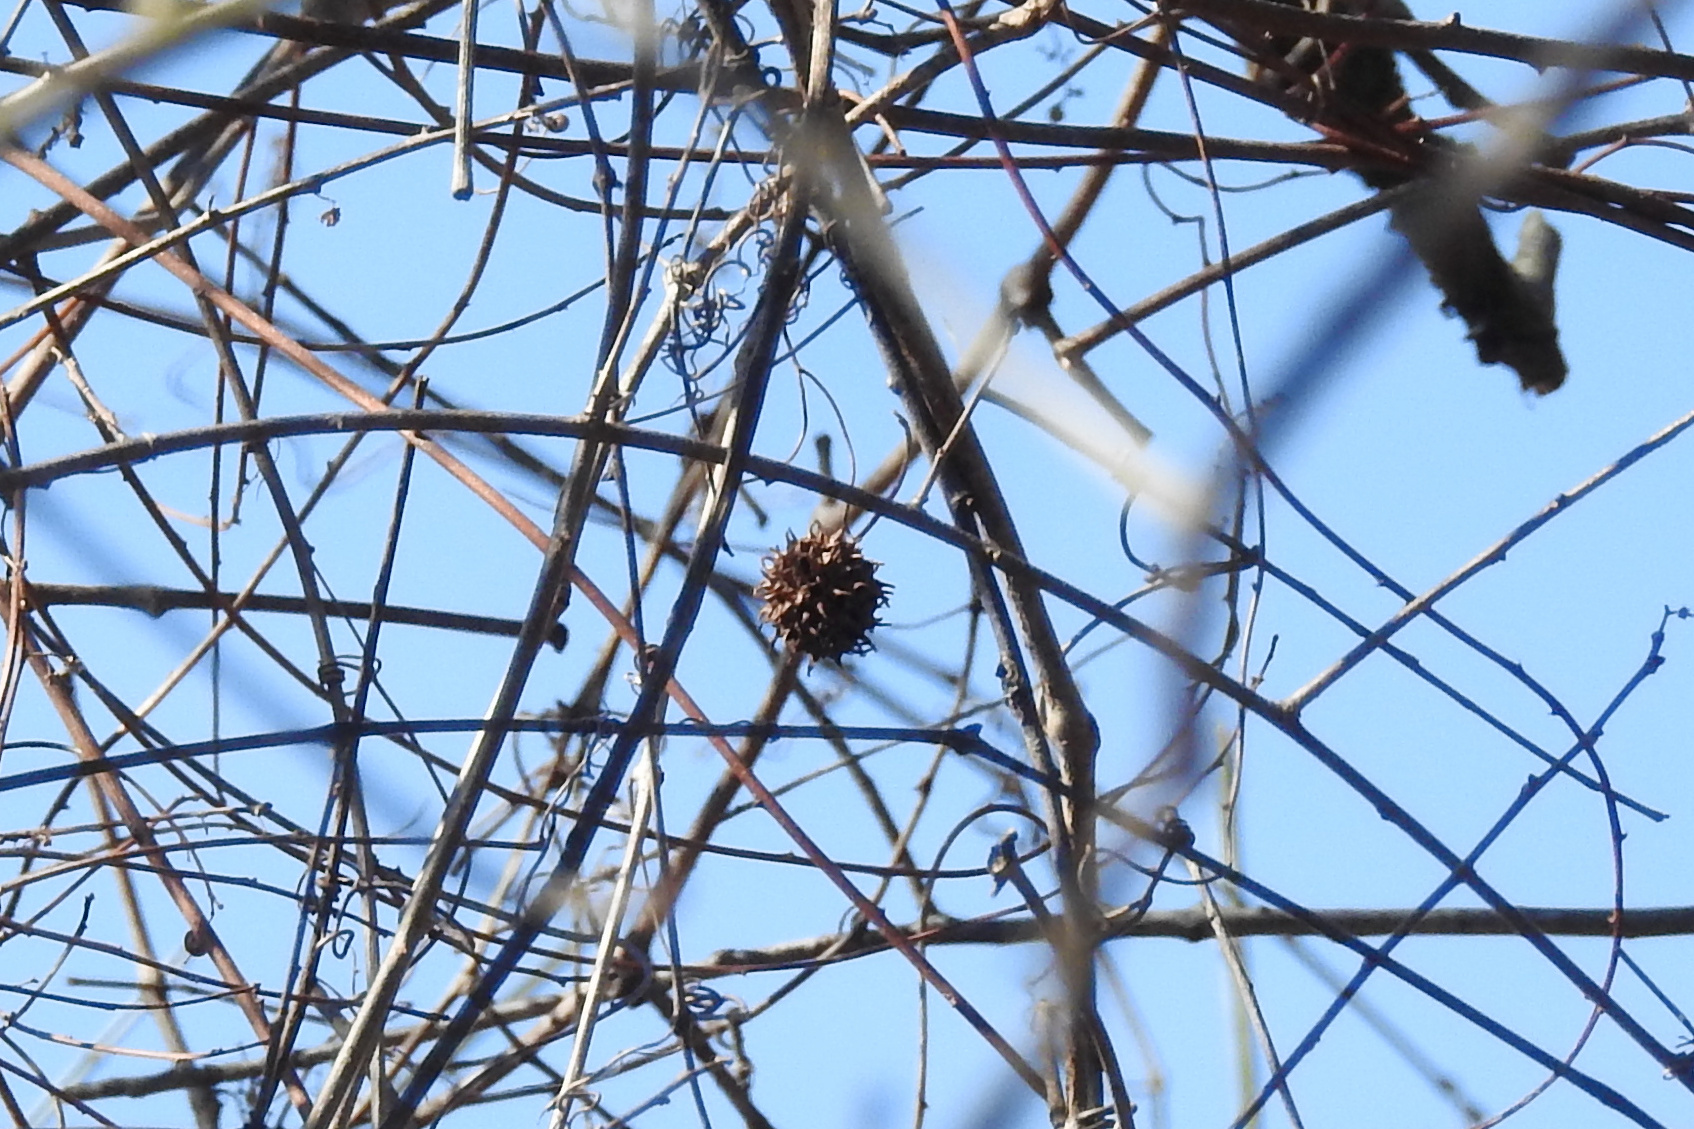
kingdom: Plantae
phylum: Tracheophyta
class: Magnoliopsida
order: Saxifragales
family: Altingiaceae
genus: Liquidambar
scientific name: Liquidambar styraciflua
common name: Sweet gum
